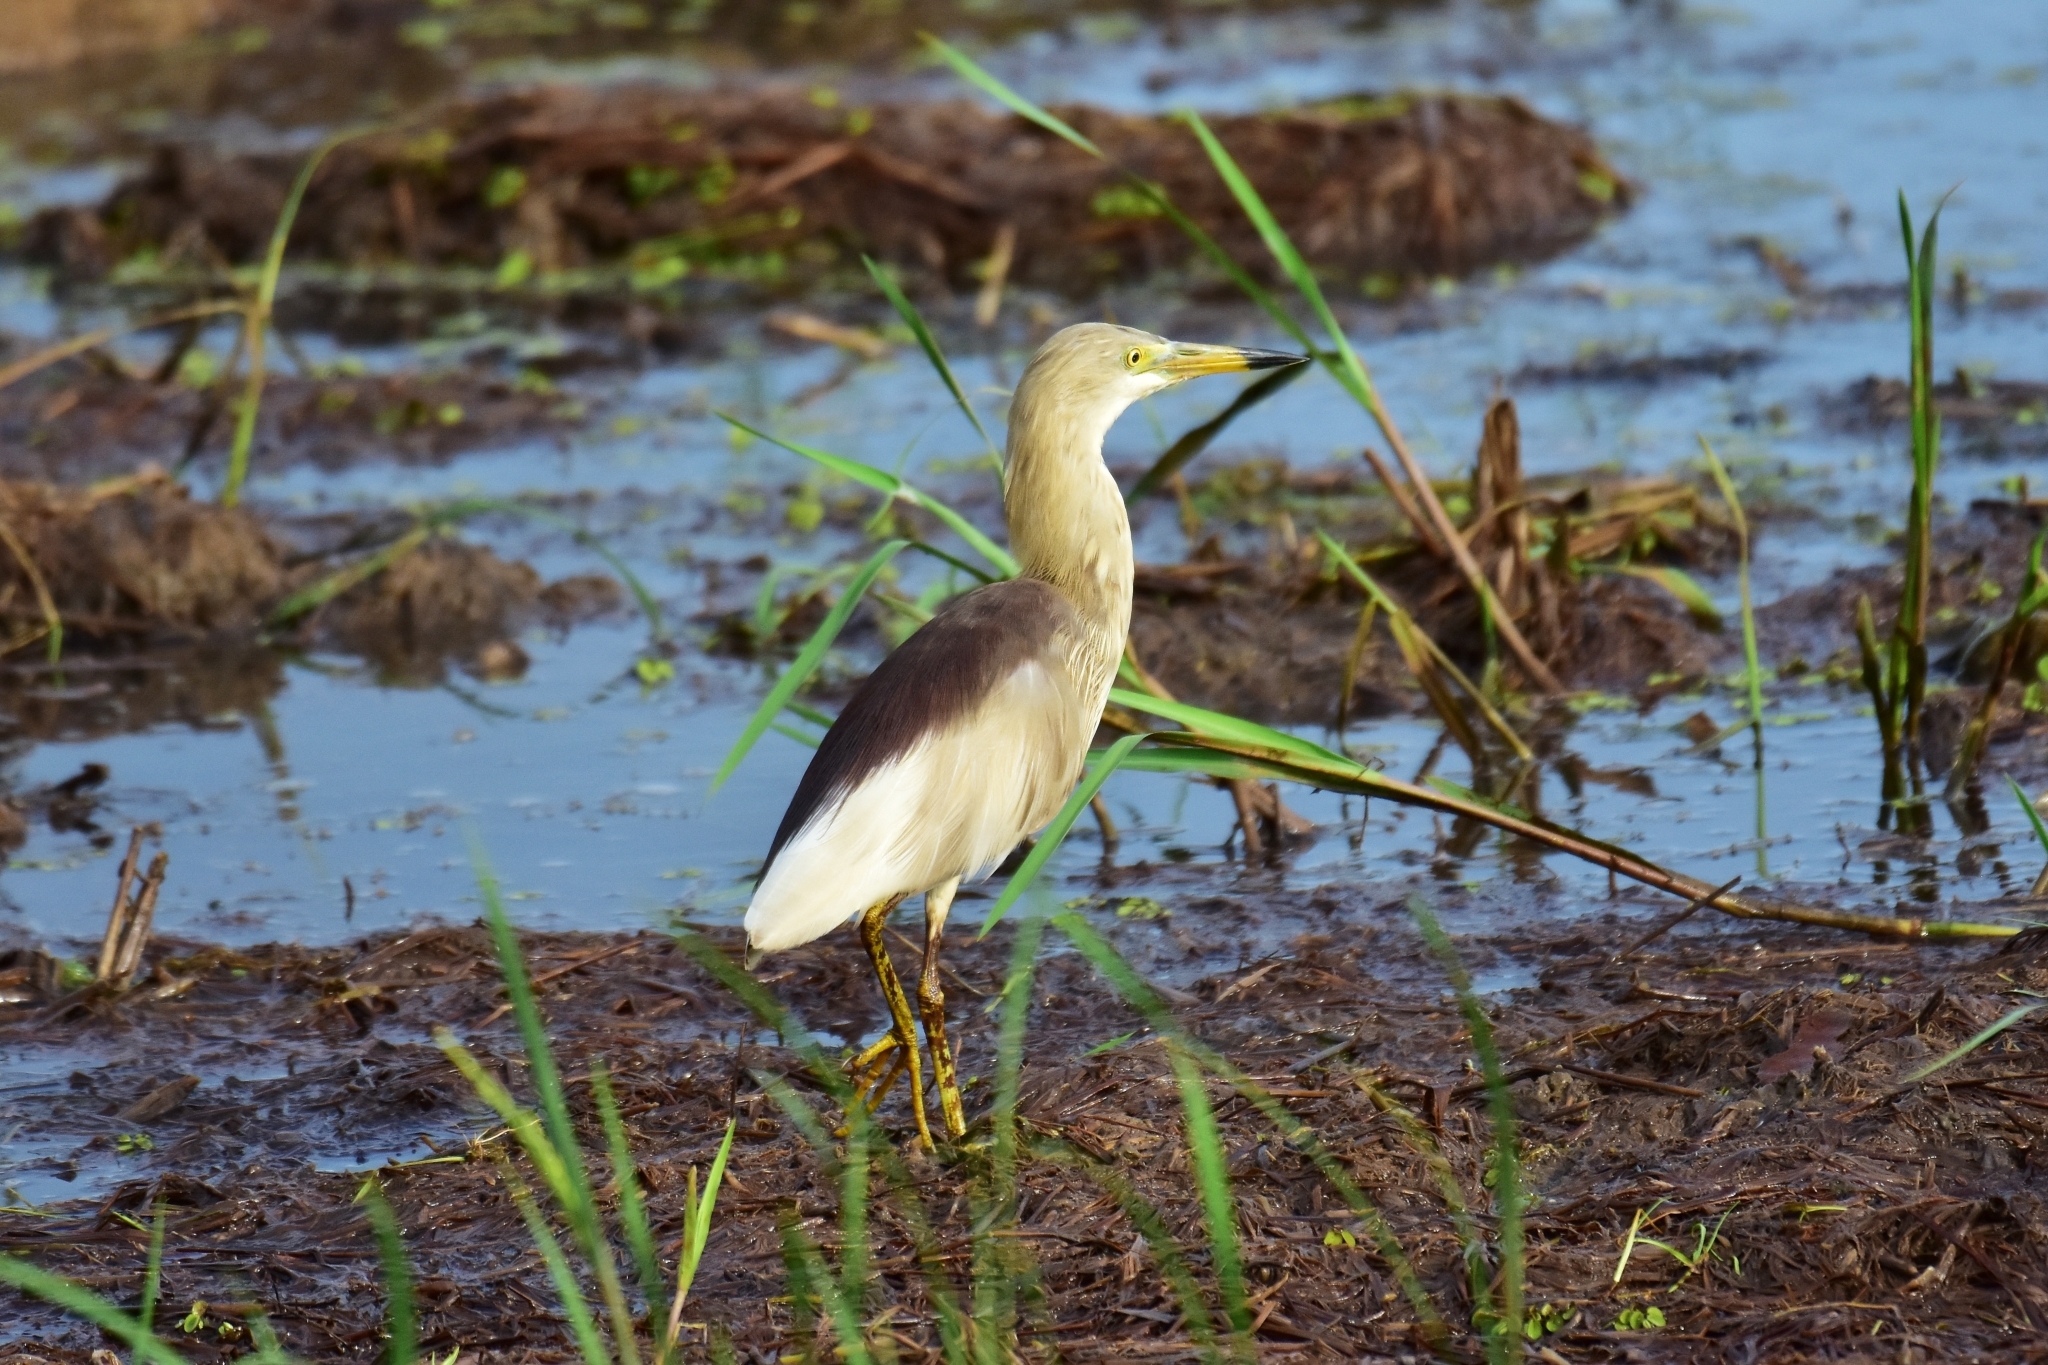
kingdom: Animalia
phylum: Chordata
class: Aves
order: Pelecaniformes
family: Ardeidae
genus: Ardeola
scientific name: Ardeola grayii
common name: Indian pond heron
